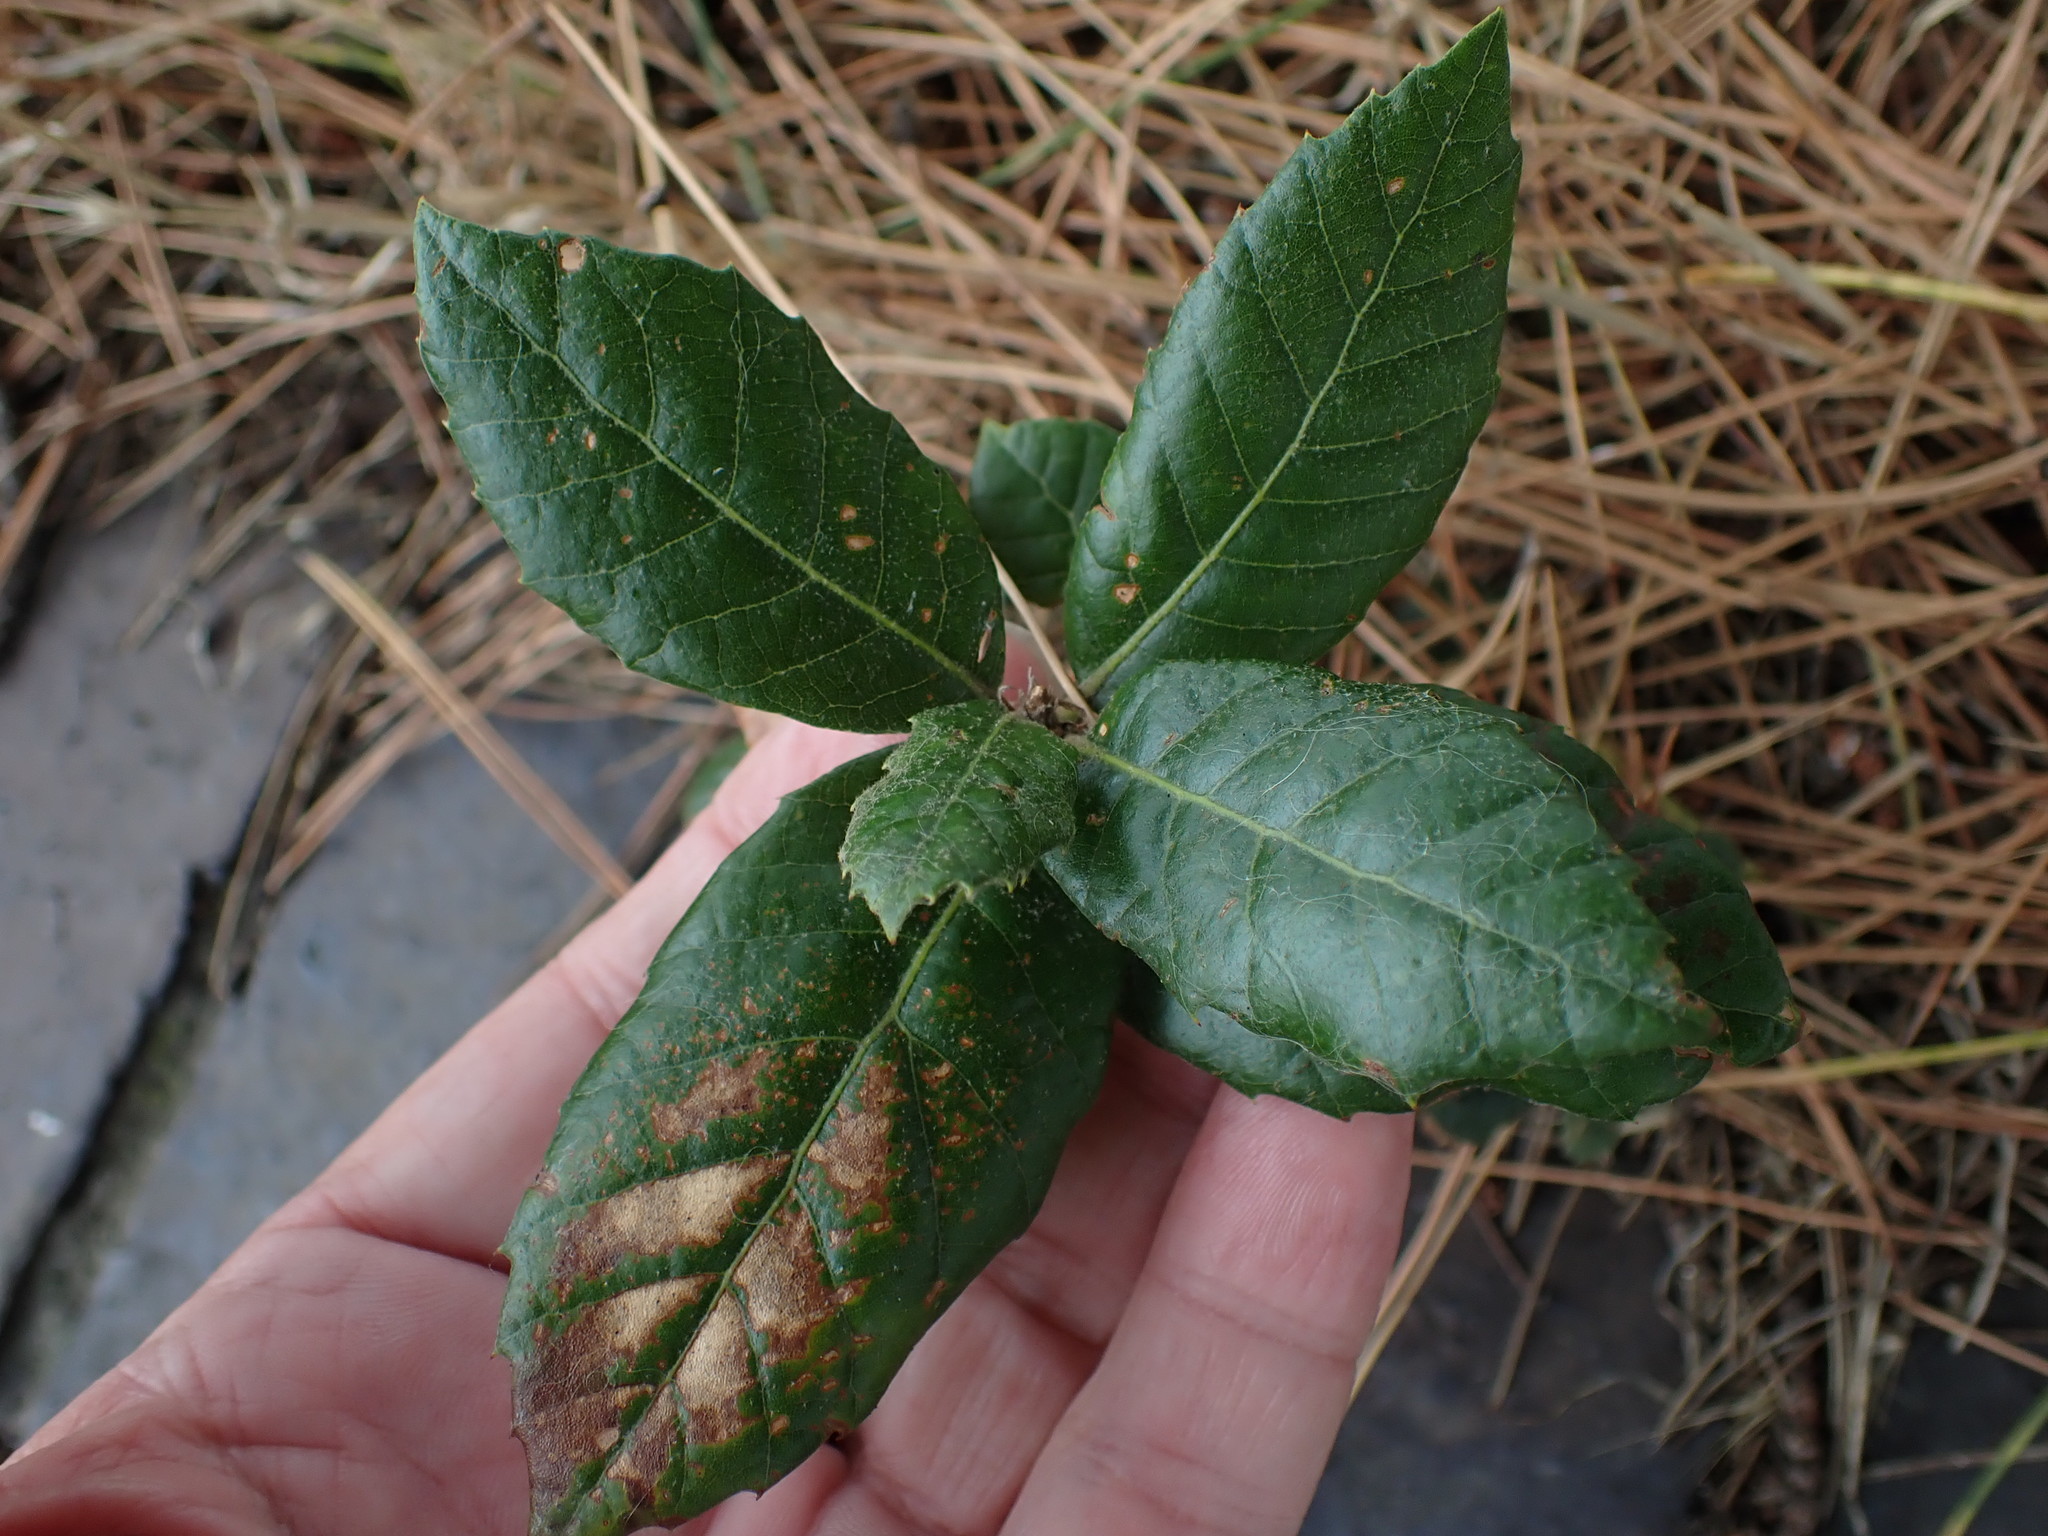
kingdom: Plantae
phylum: Tracheophyta
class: Magnoliopsida
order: Fagales
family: Fagaceae
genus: Quercus
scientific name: Quercus ilex
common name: Evergreen oak
